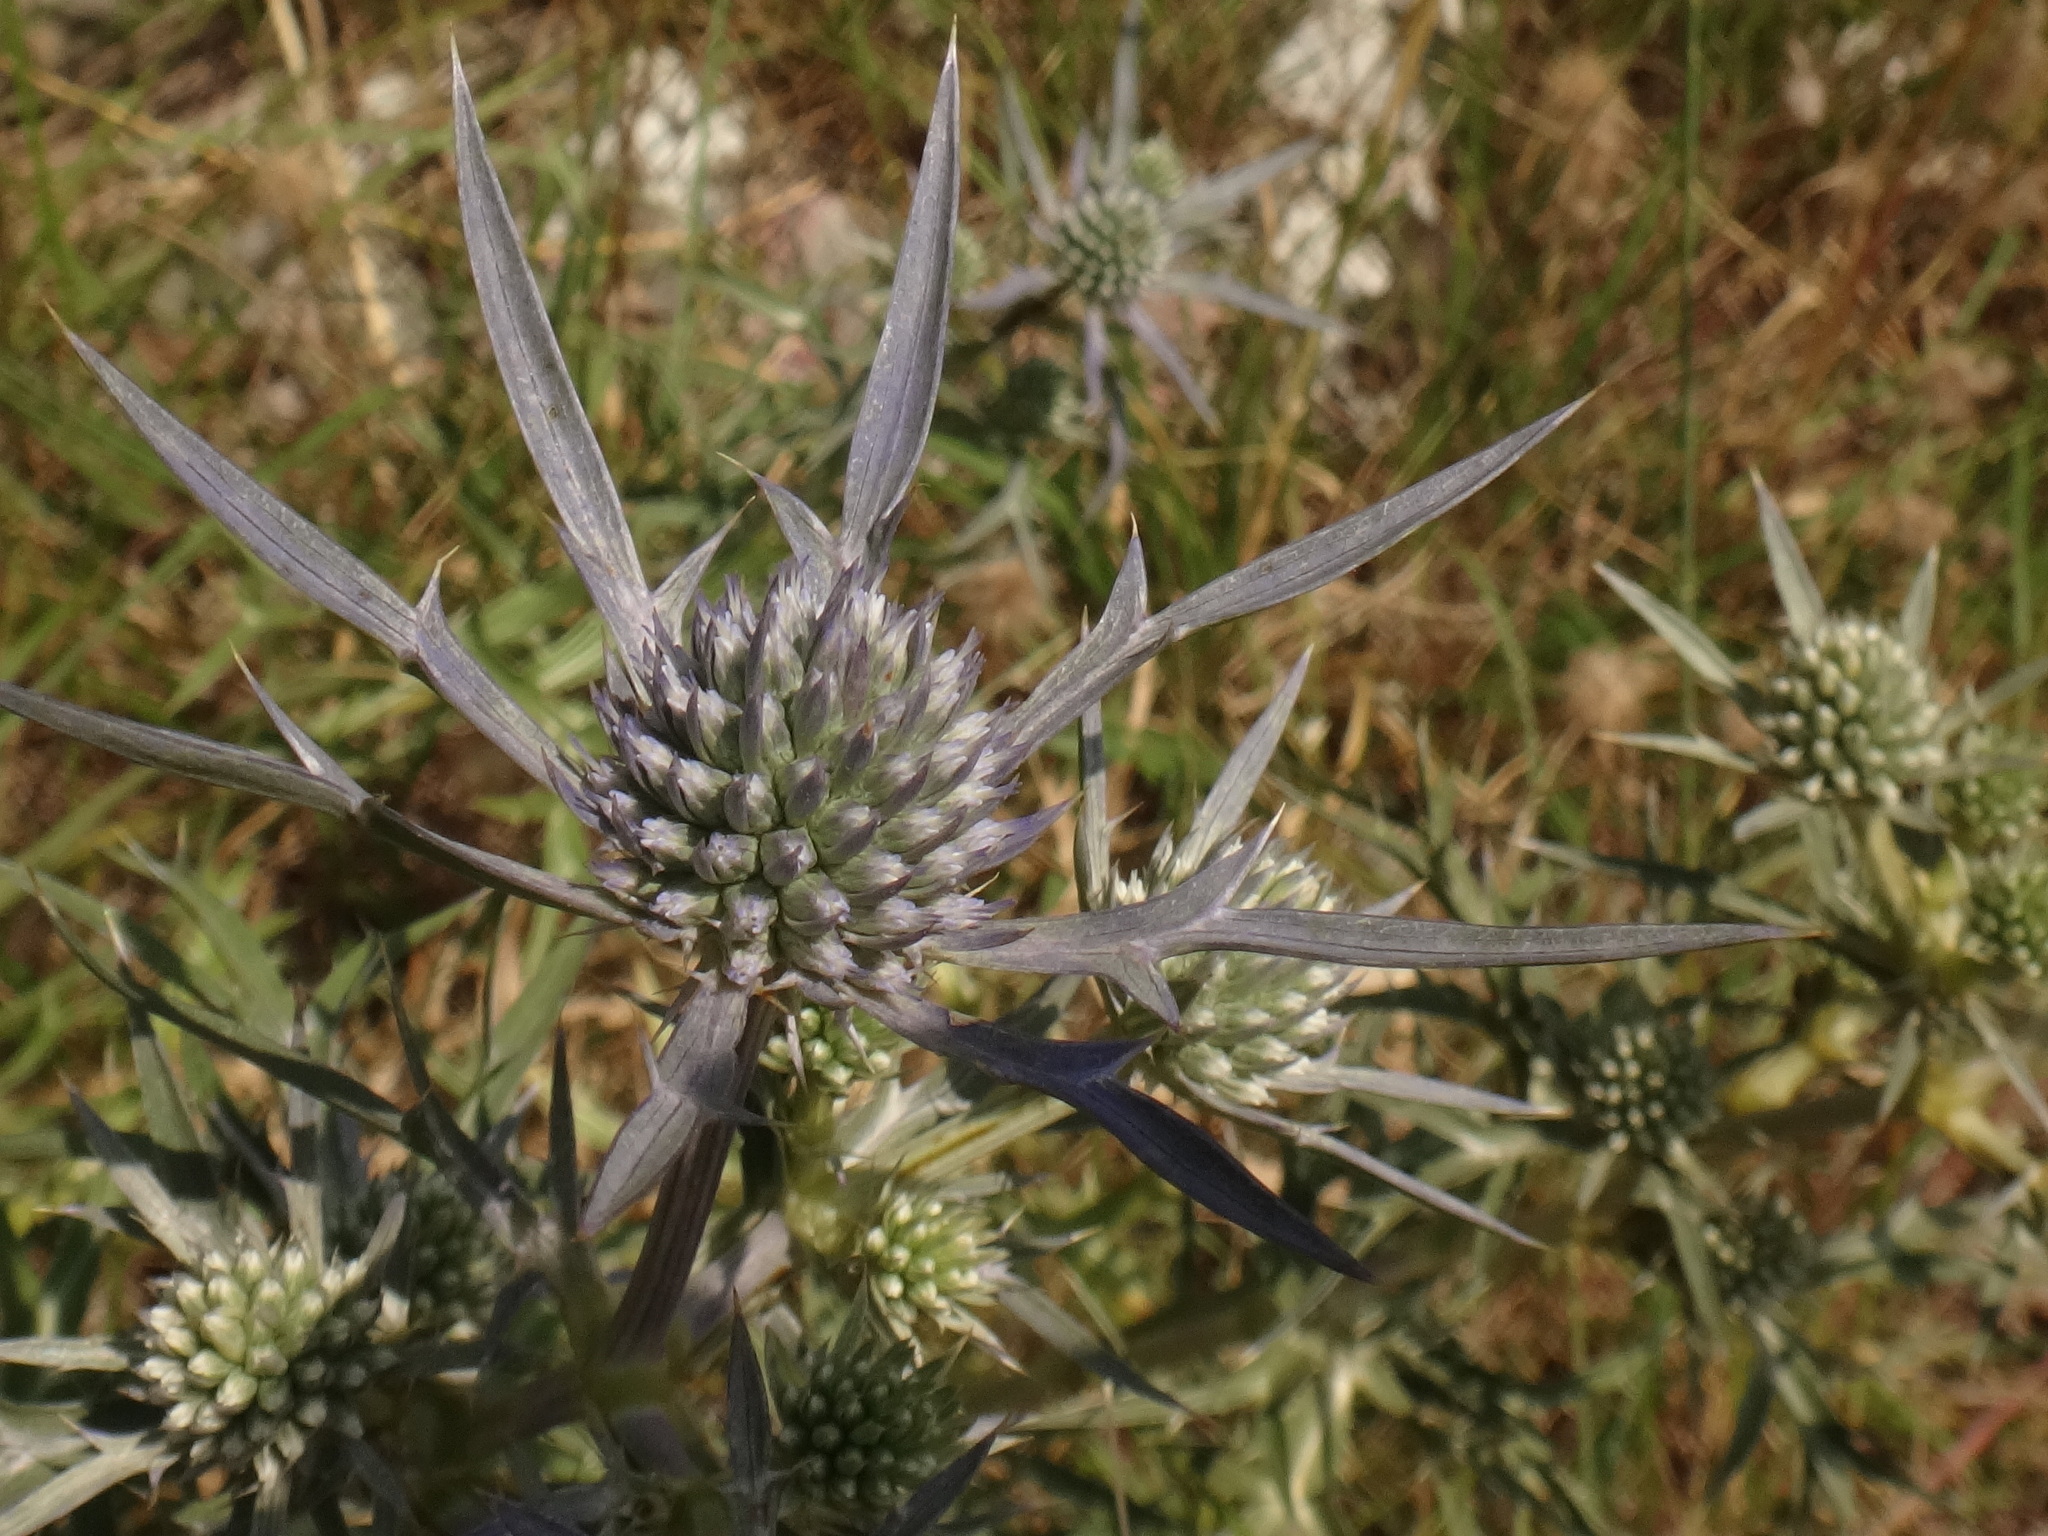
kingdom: Plantae
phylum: Tracheophyta
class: Magnoliopsida
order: Apiales
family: Apiaceae
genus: Eryngium
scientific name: Eryngium amethystinum
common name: Amethyst eryngo
